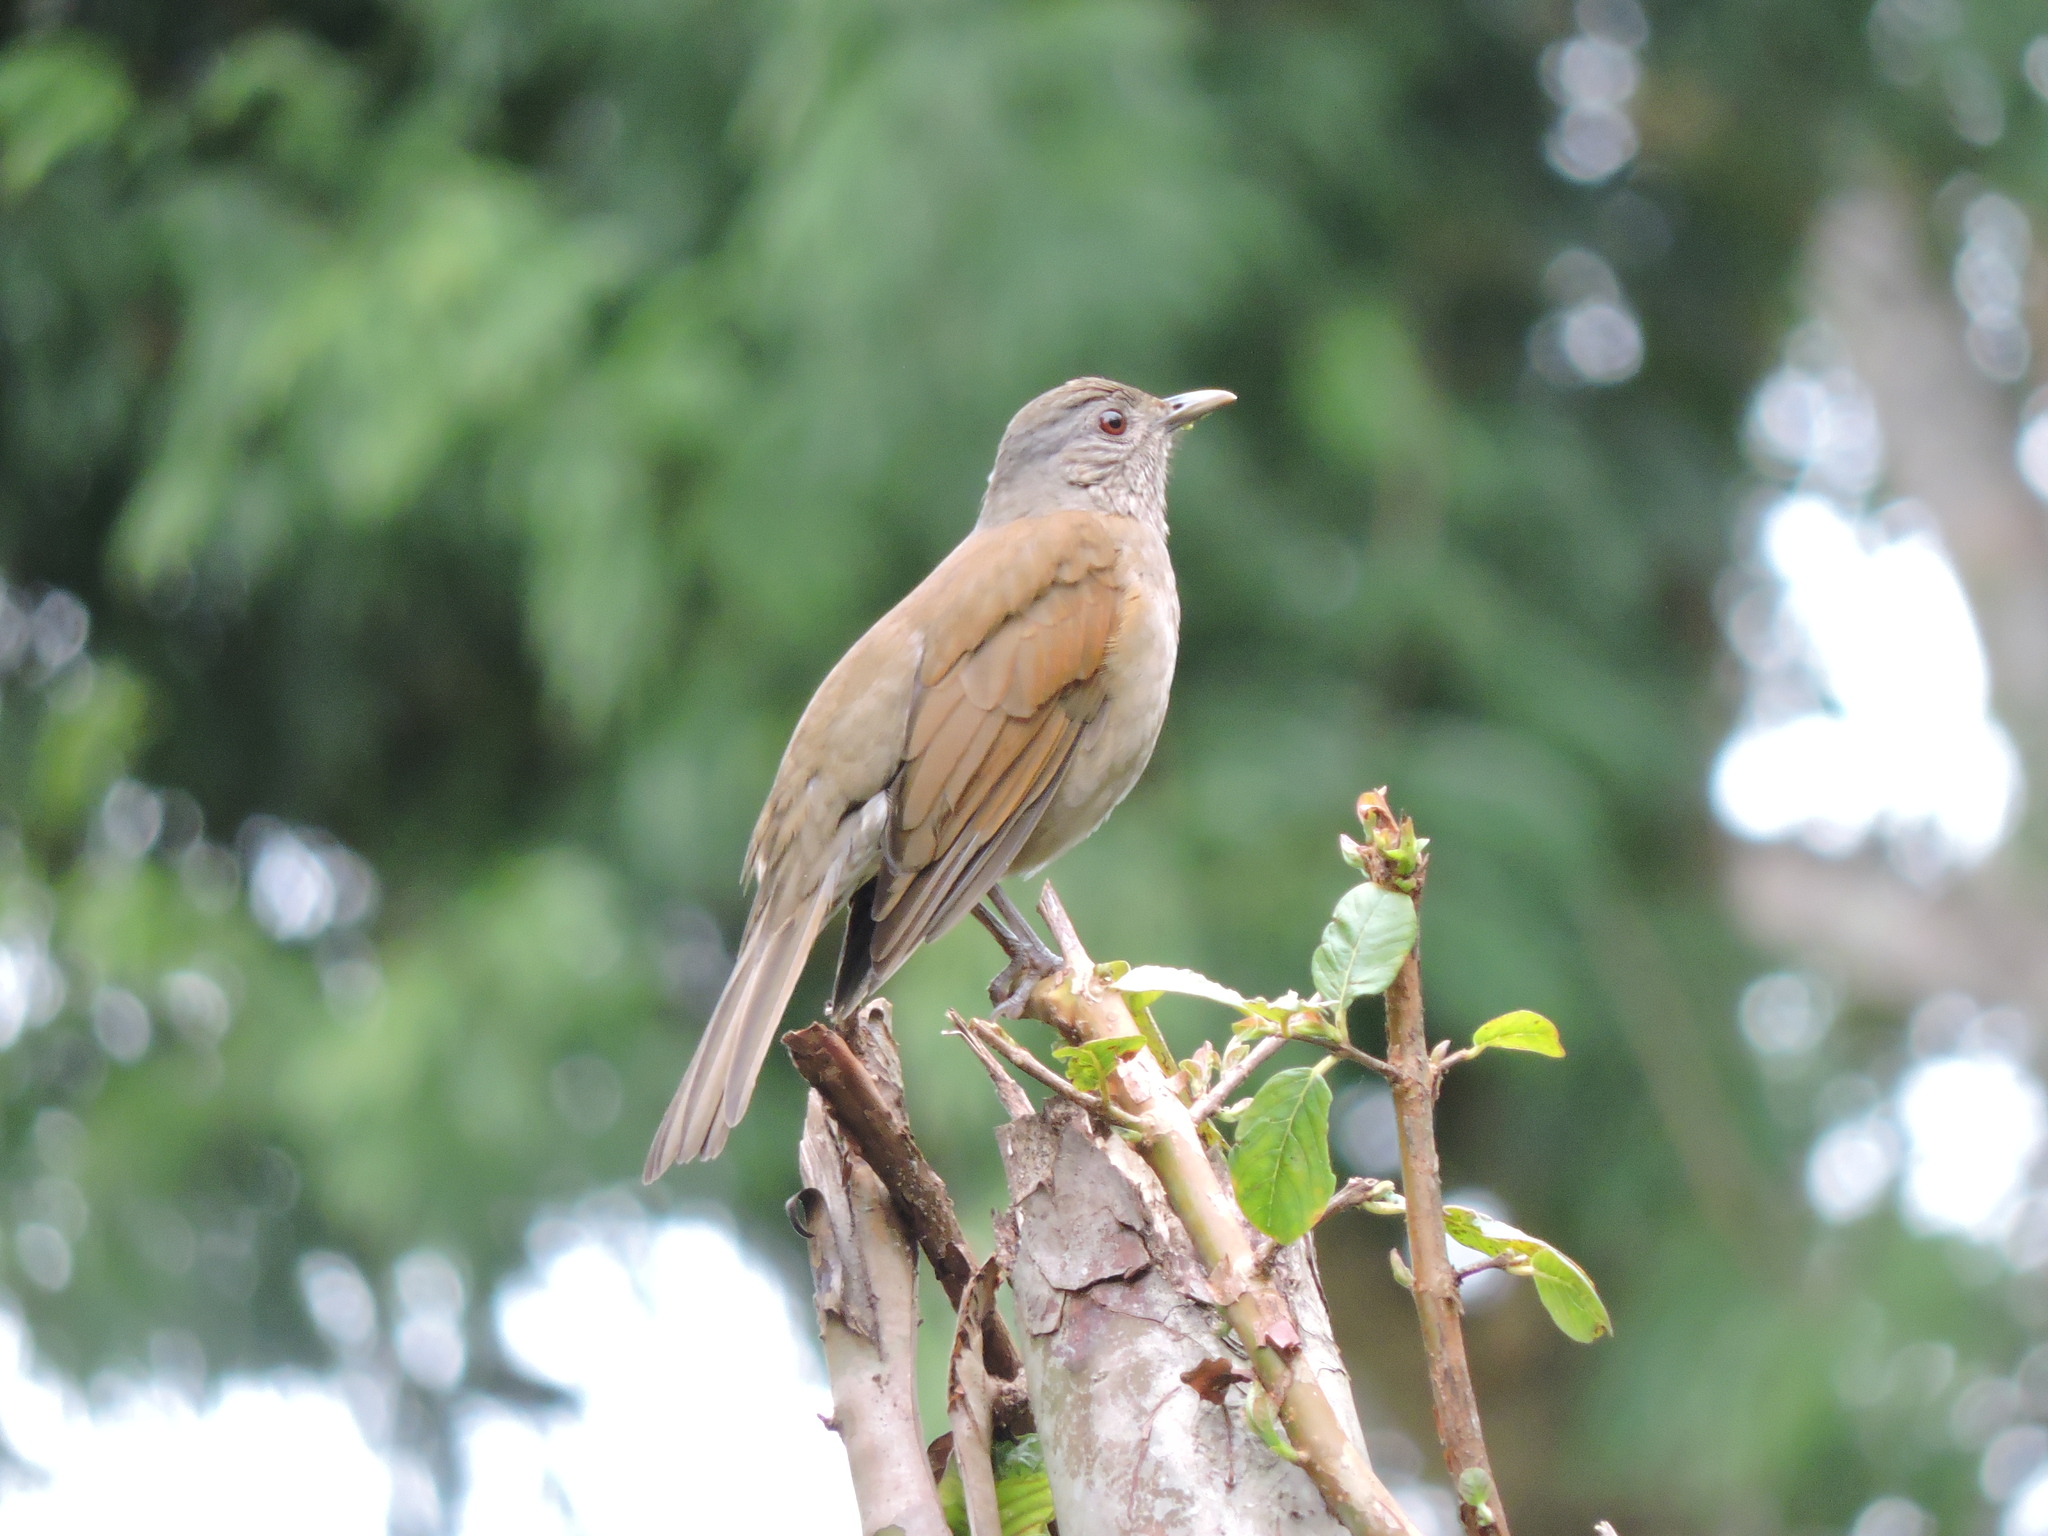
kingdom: Animalia
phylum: Chordata
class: Aves
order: Passeriformes
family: Turdidae
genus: Turdus
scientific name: Turdus leucomelas
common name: Pale-breasted thrush
